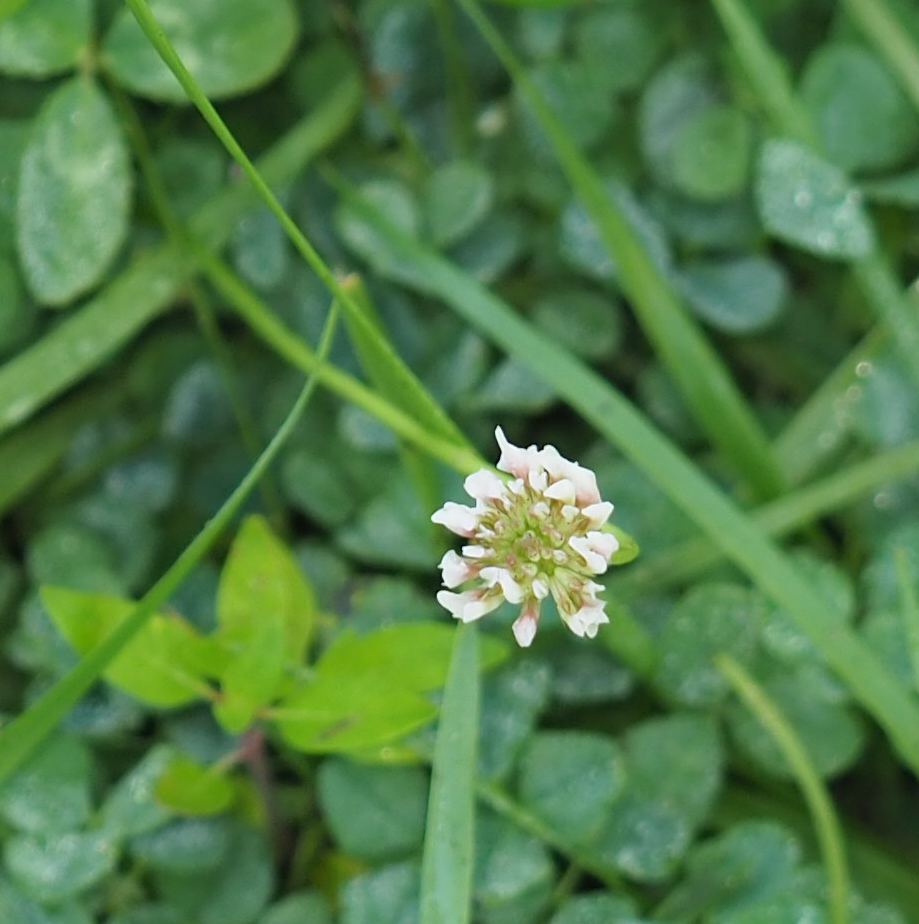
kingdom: Plantae
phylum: Tracheophyta
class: Magnoliopsida
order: Fabales
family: Fabaceae
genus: Trifolium
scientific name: Trifolium repens
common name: White clover
